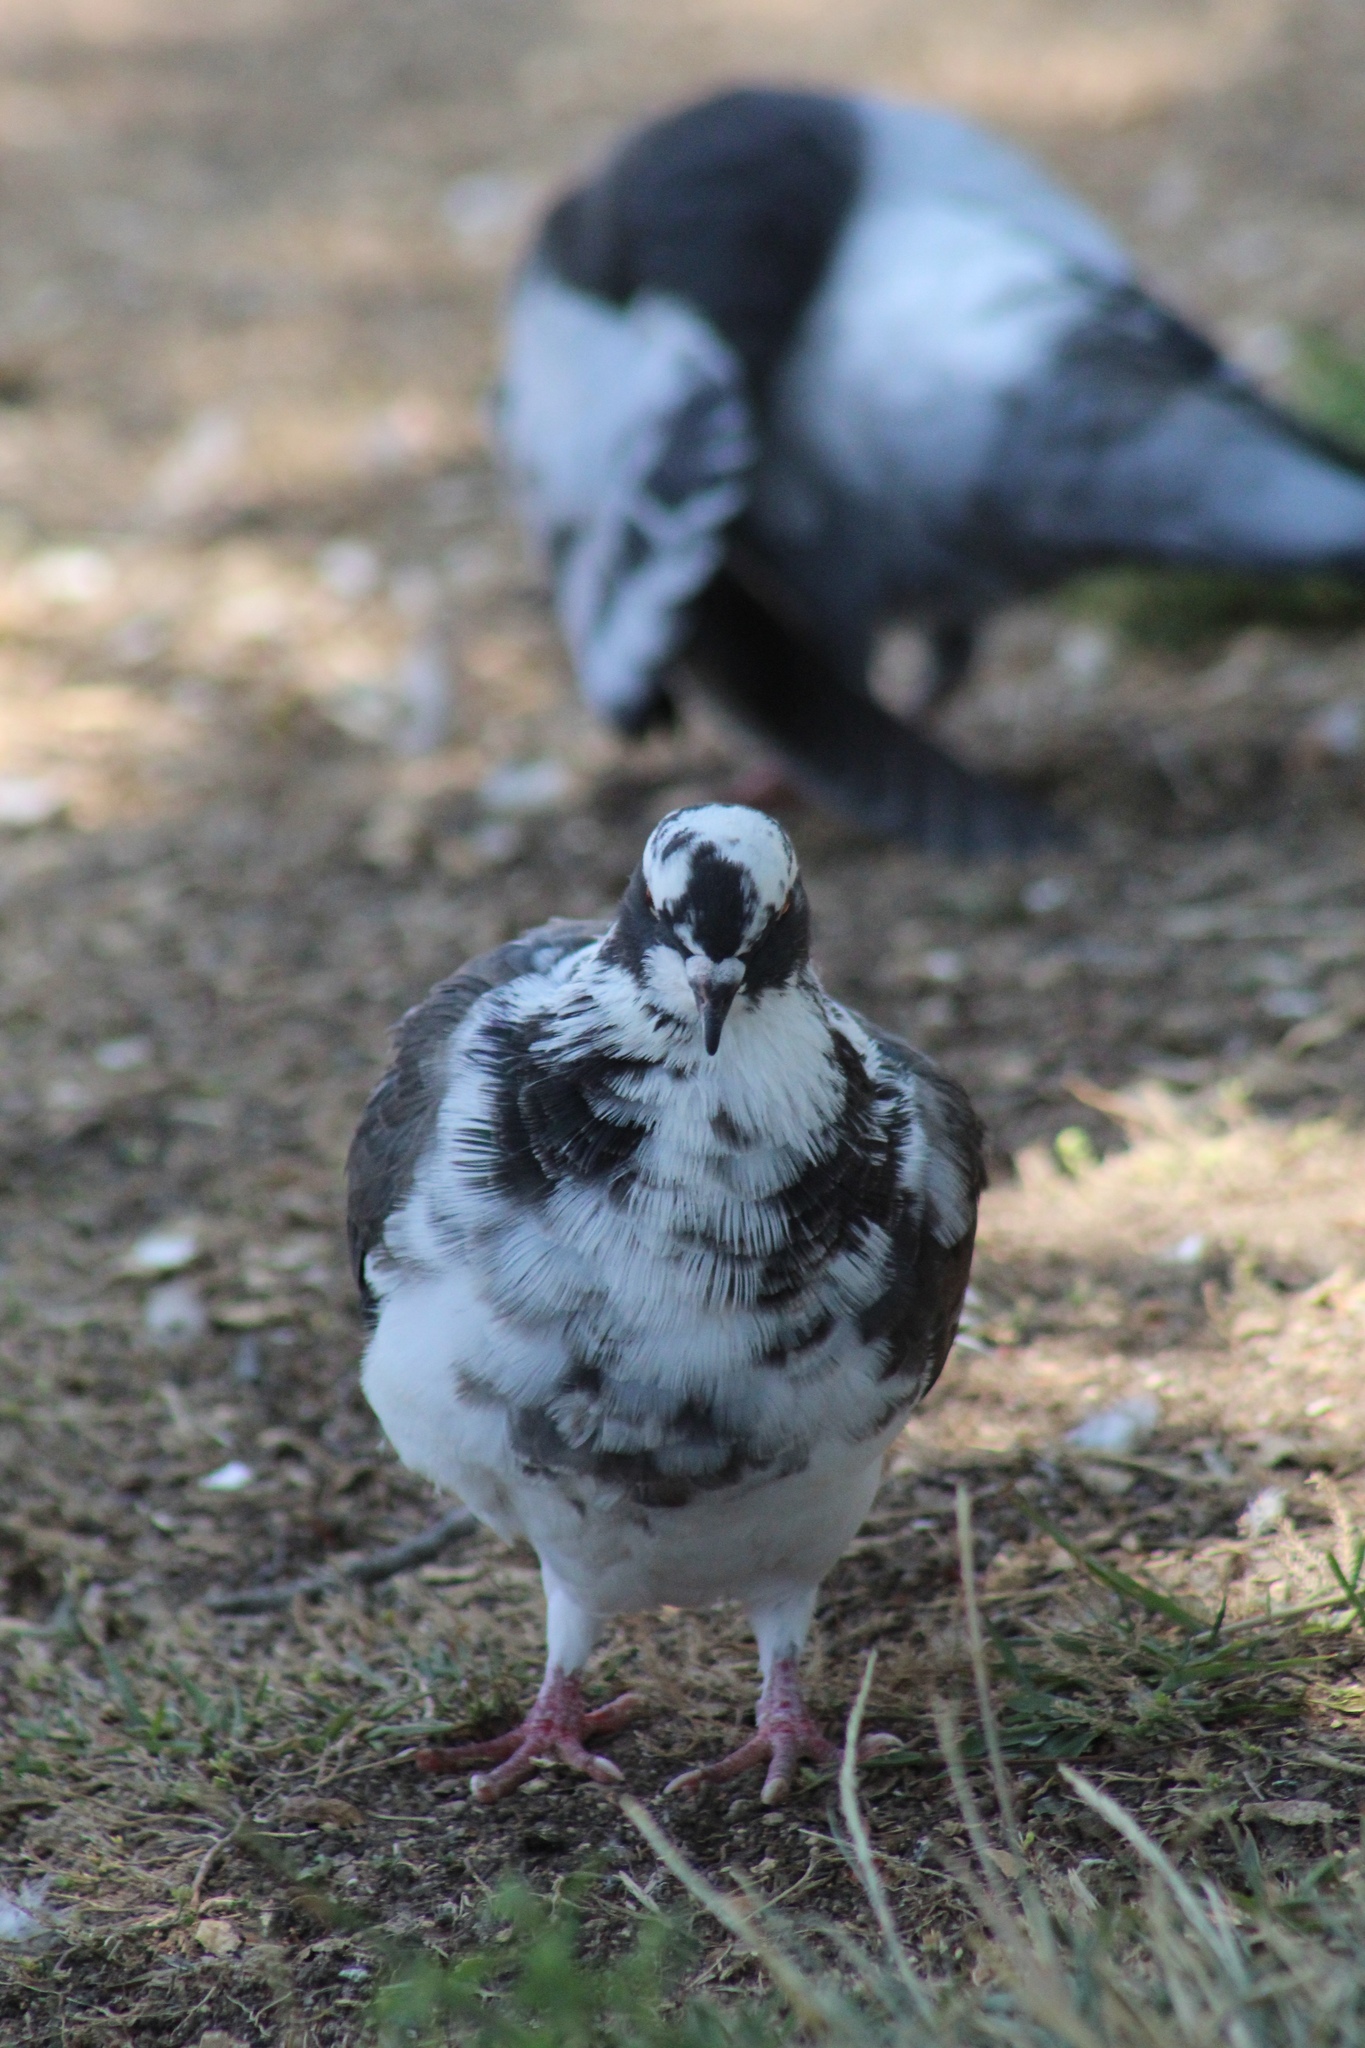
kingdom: Animalia
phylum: Chordata
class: Aves
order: Columbiformes
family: Columbidae
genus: Columba
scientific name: Columba livia
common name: Rock pigeon
